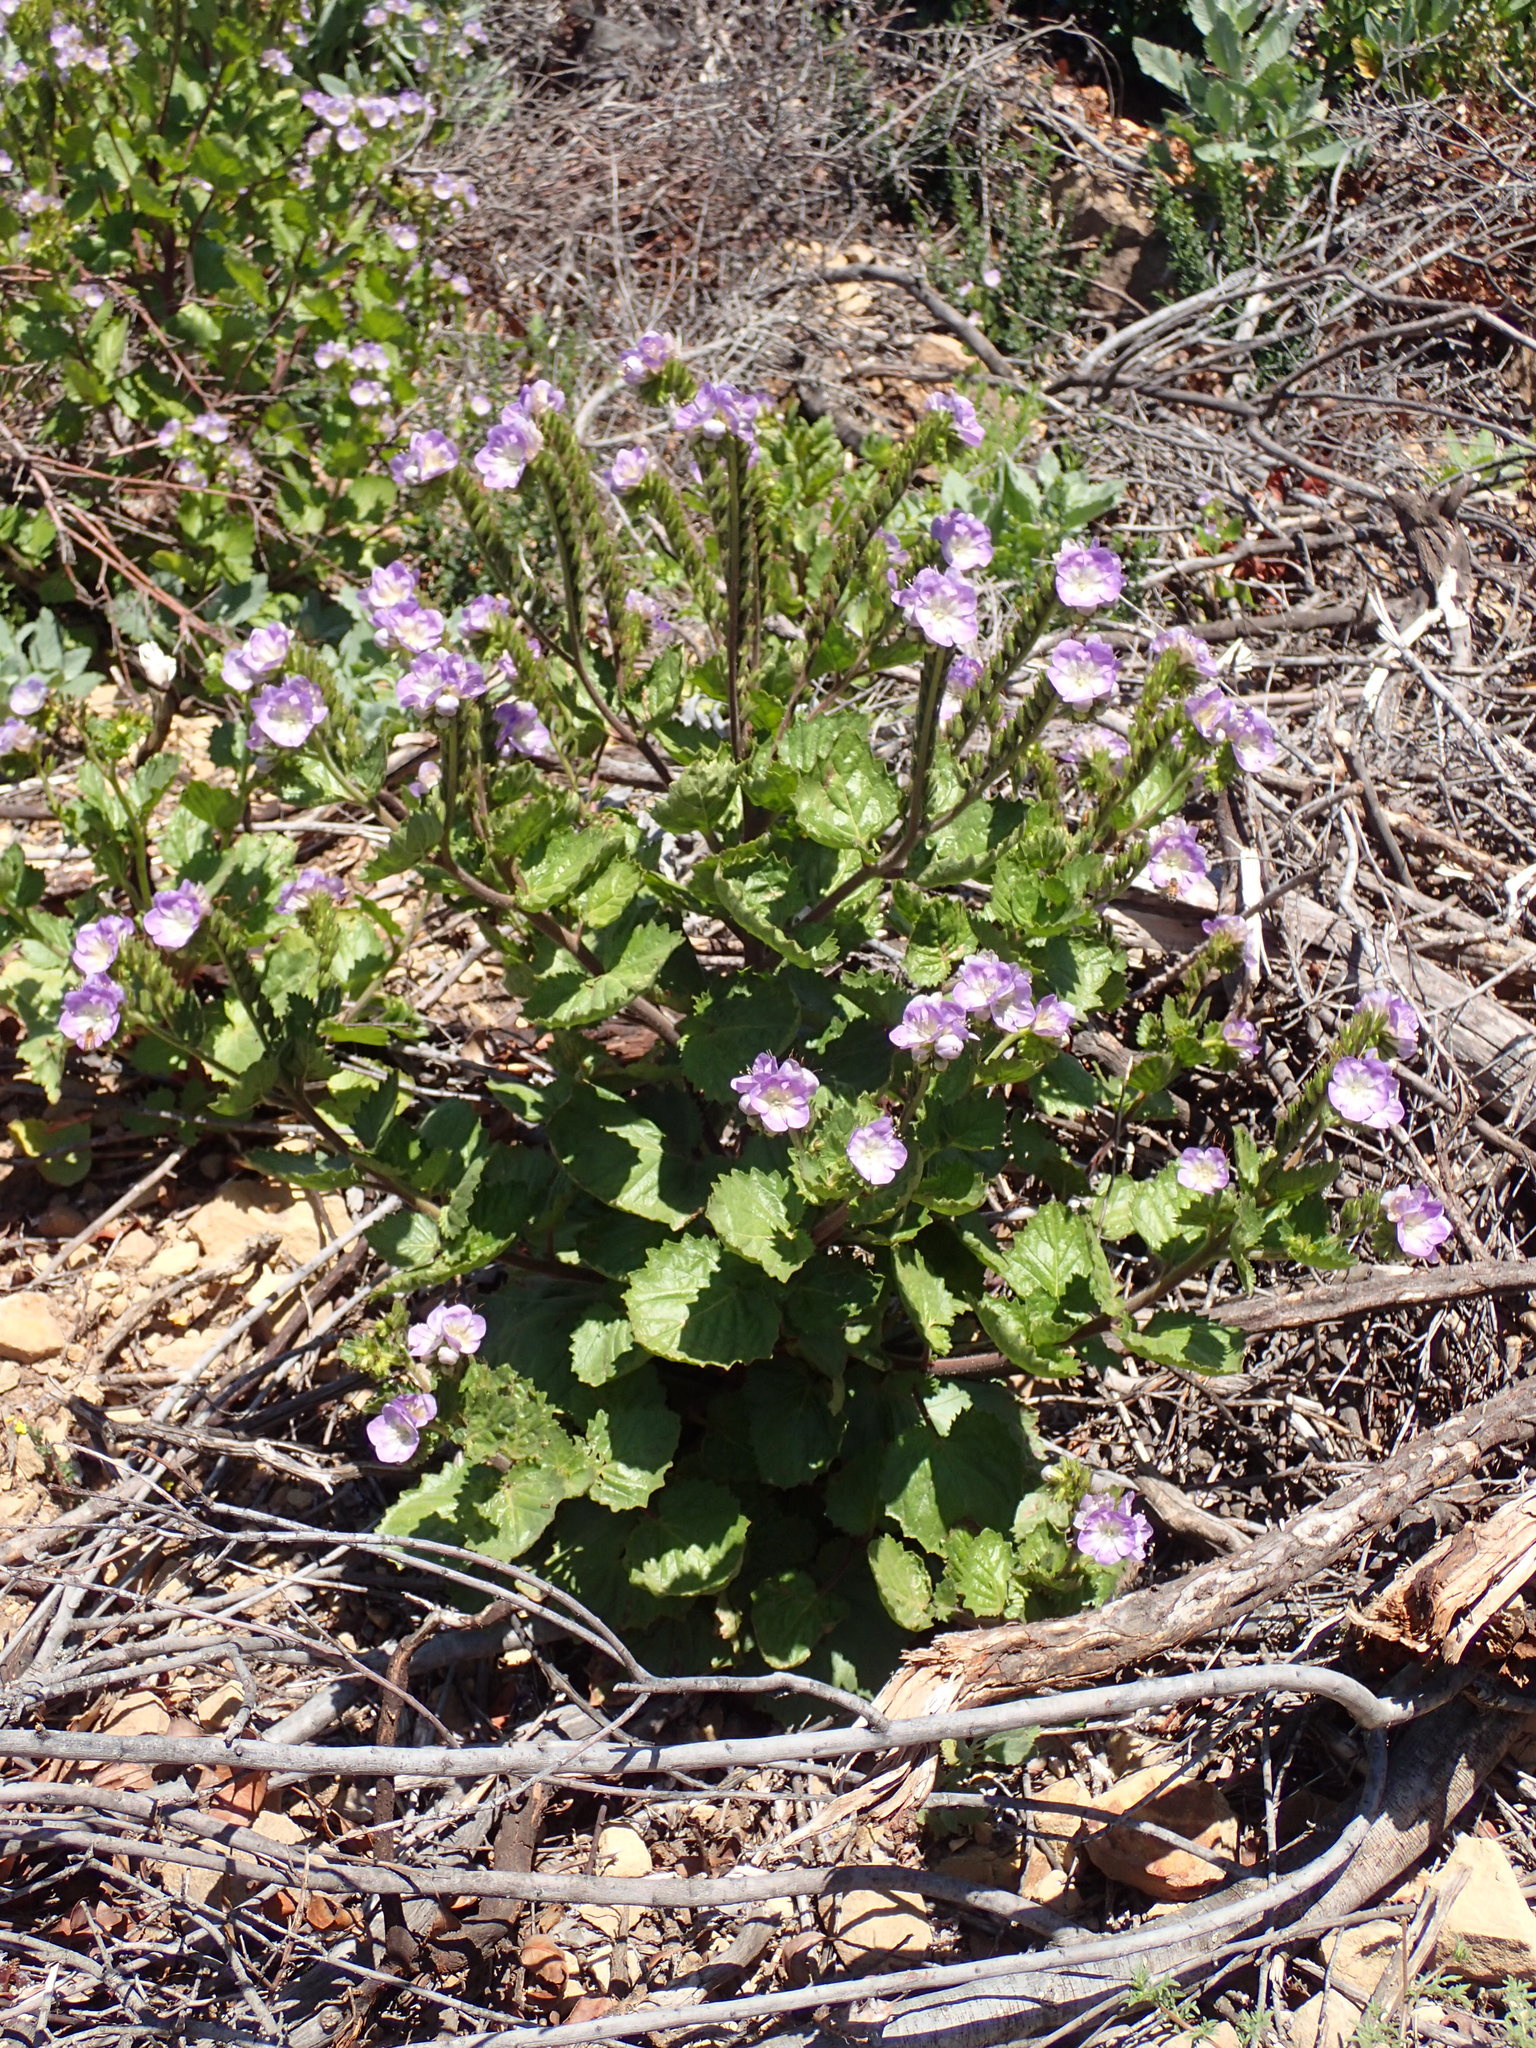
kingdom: Plantae
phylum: Tracheophyta
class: Magnoliopsida
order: Boraginales
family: Hydrophyllaceae
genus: Phacelia
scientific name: Phacelia grandiflora
